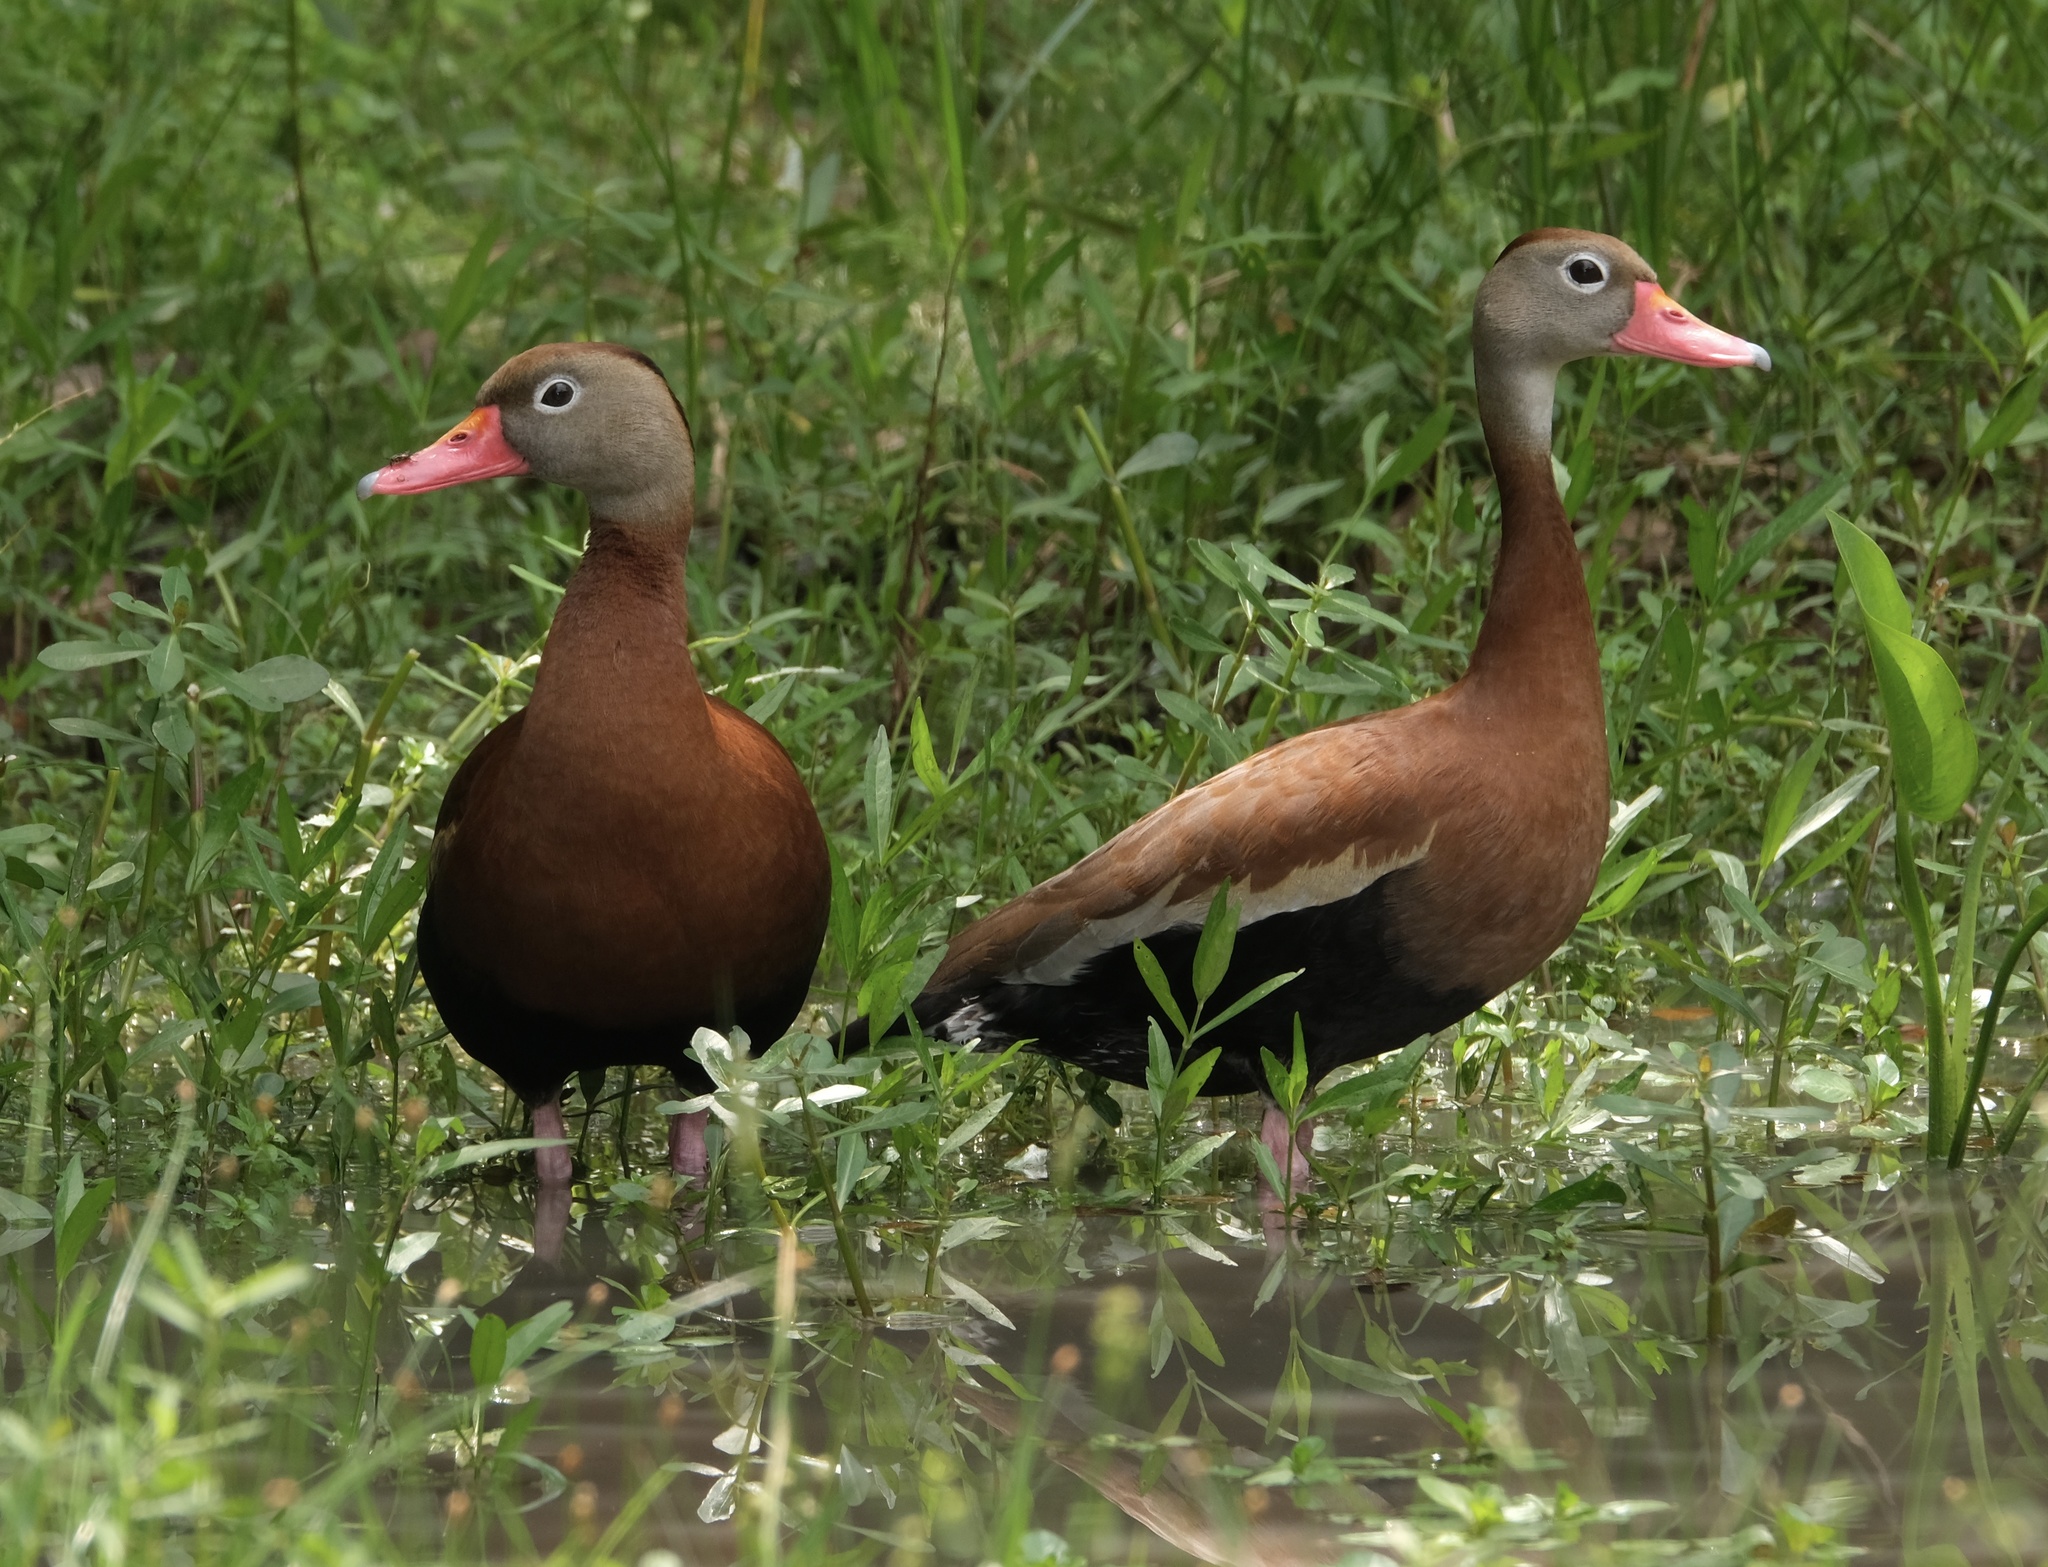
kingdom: Animalia
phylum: Chordata
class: Aves
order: Anseriformes
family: Anatidae
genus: Dendrocygna
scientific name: Dendrocygna autumnalis
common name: Black-bellied whistling duck
